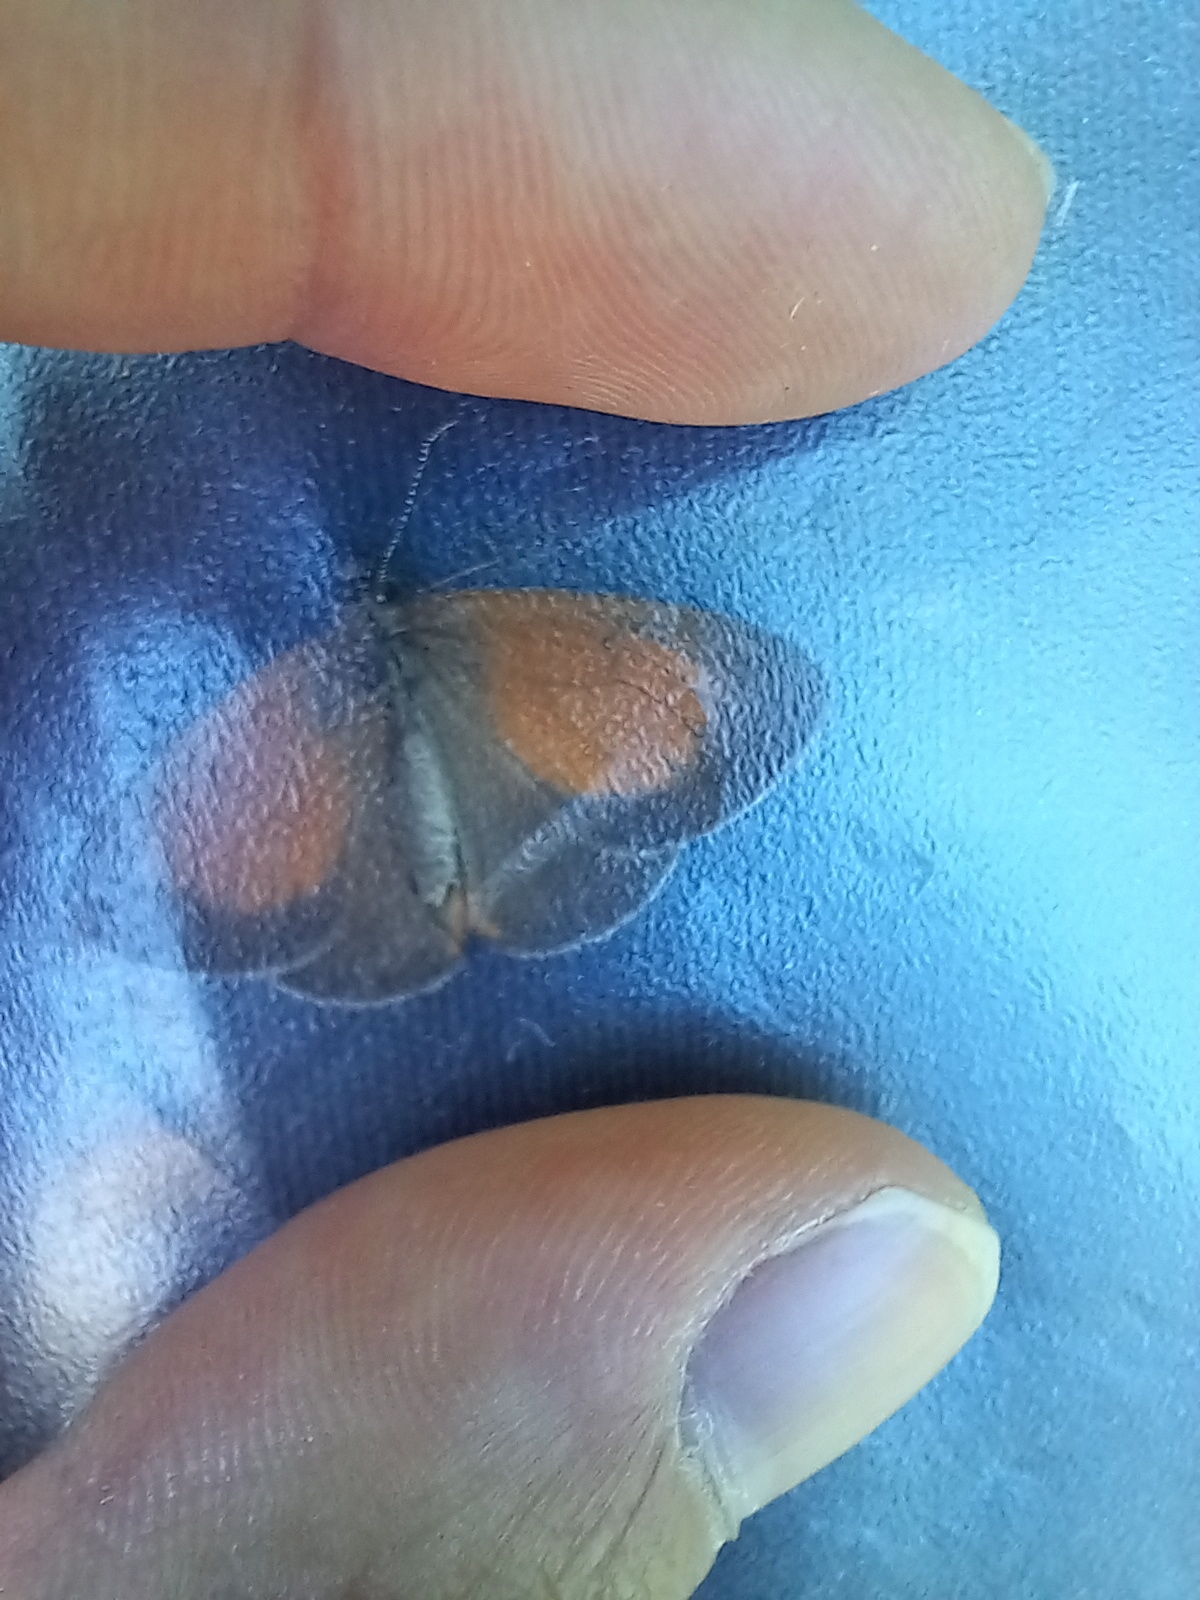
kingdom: Animalia
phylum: Arthropoda
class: Insecta
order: Lepidoptera
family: Nymphalidae
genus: Coenonympha
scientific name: Coenonympha arcania
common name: Pearly heath
